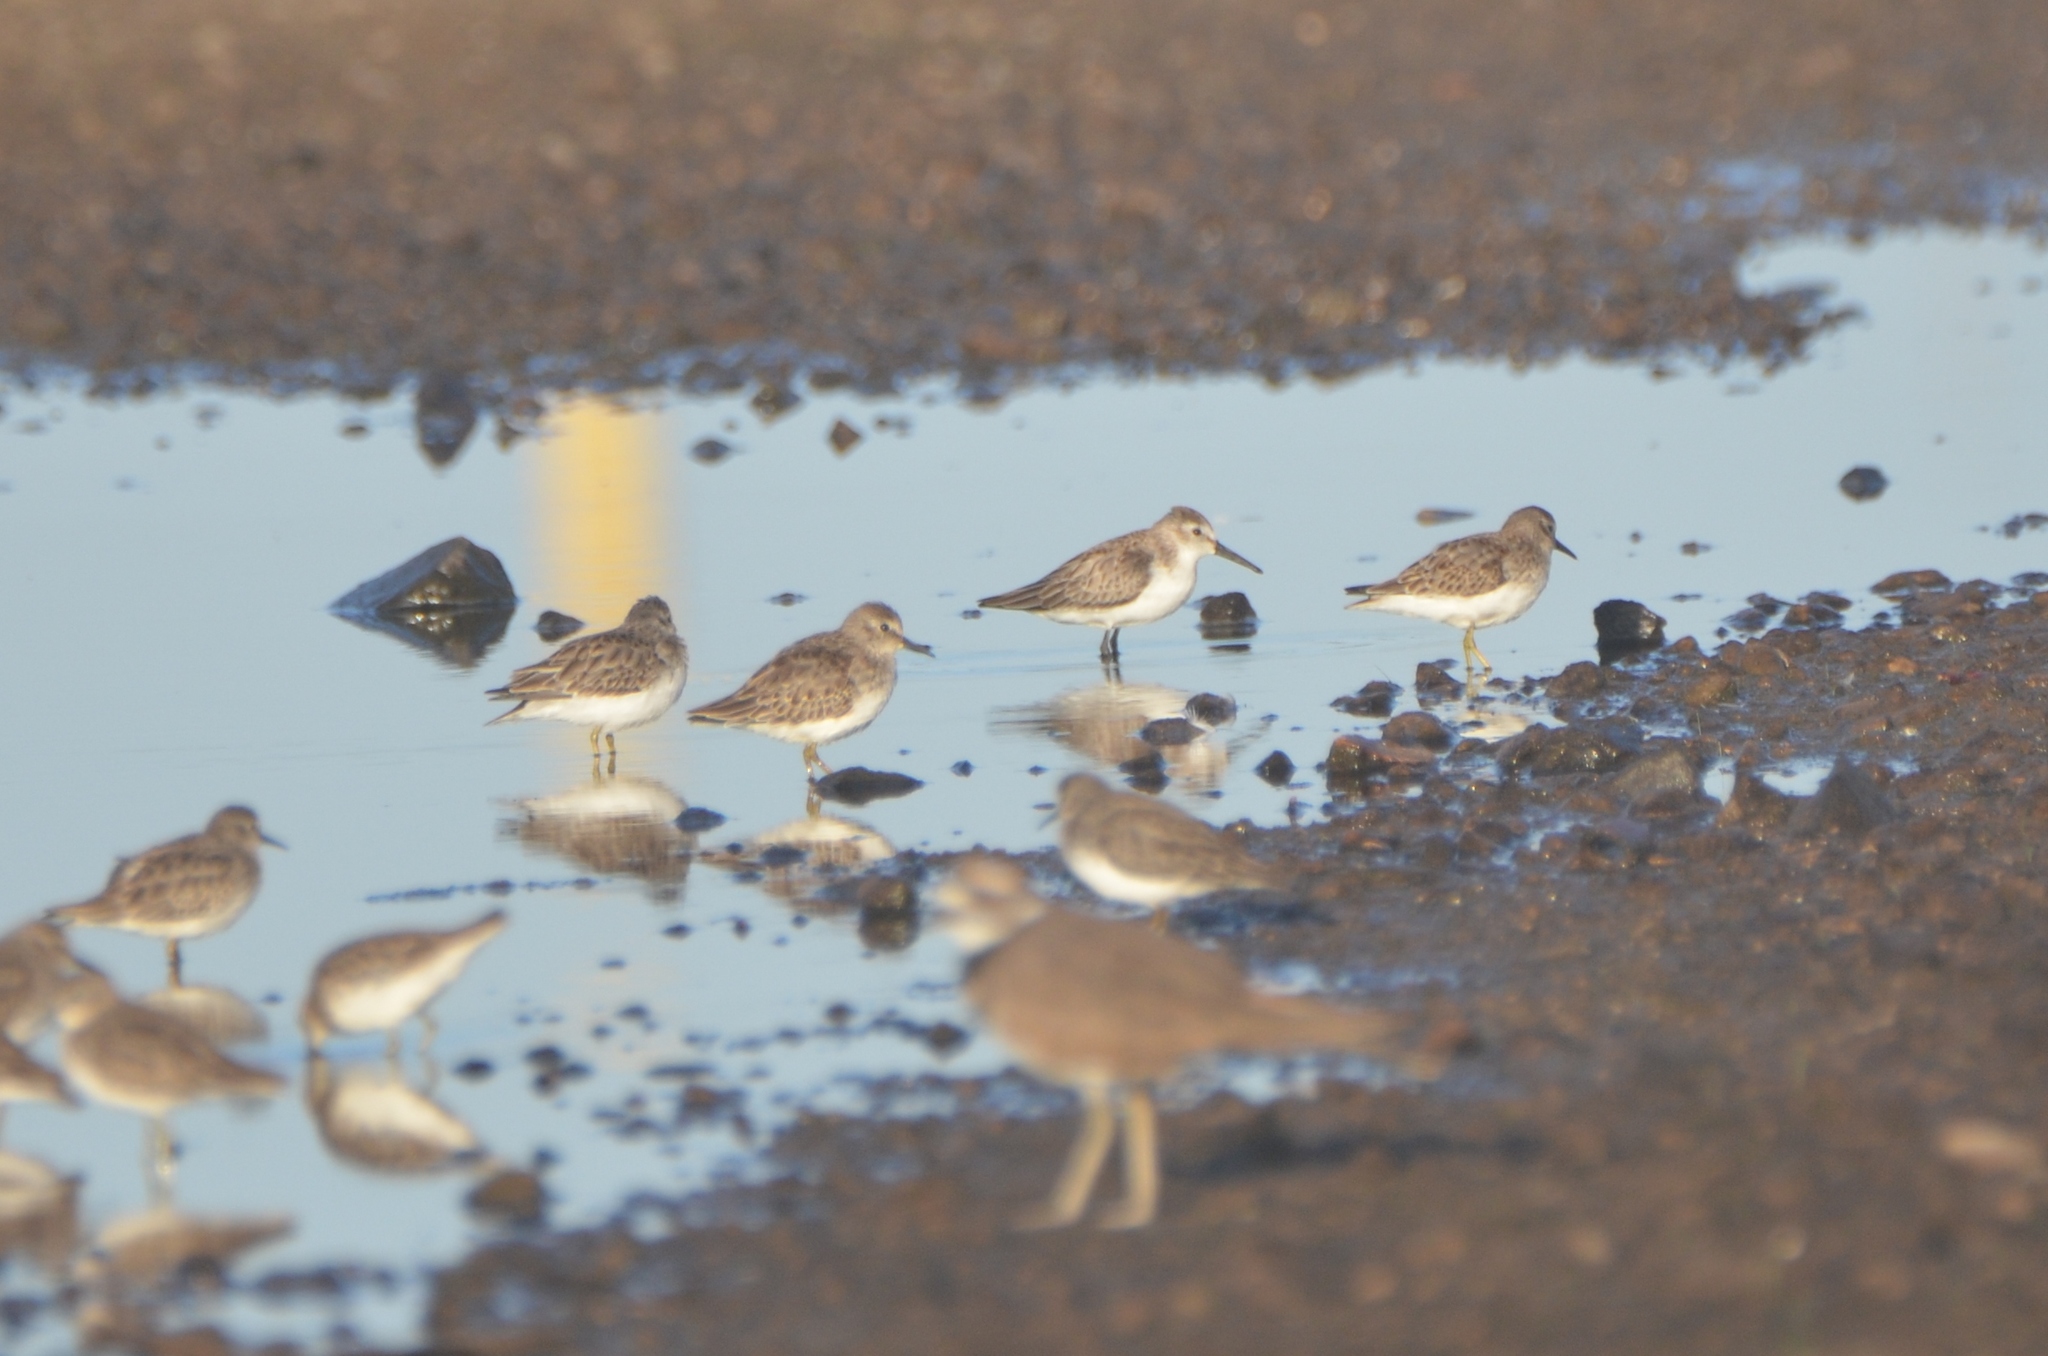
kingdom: Animalia
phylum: Chordata
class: Aves
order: Charadriiformes
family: Scolopacidae
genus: Calidris
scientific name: Calidris mauri
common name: Western sandpiper
